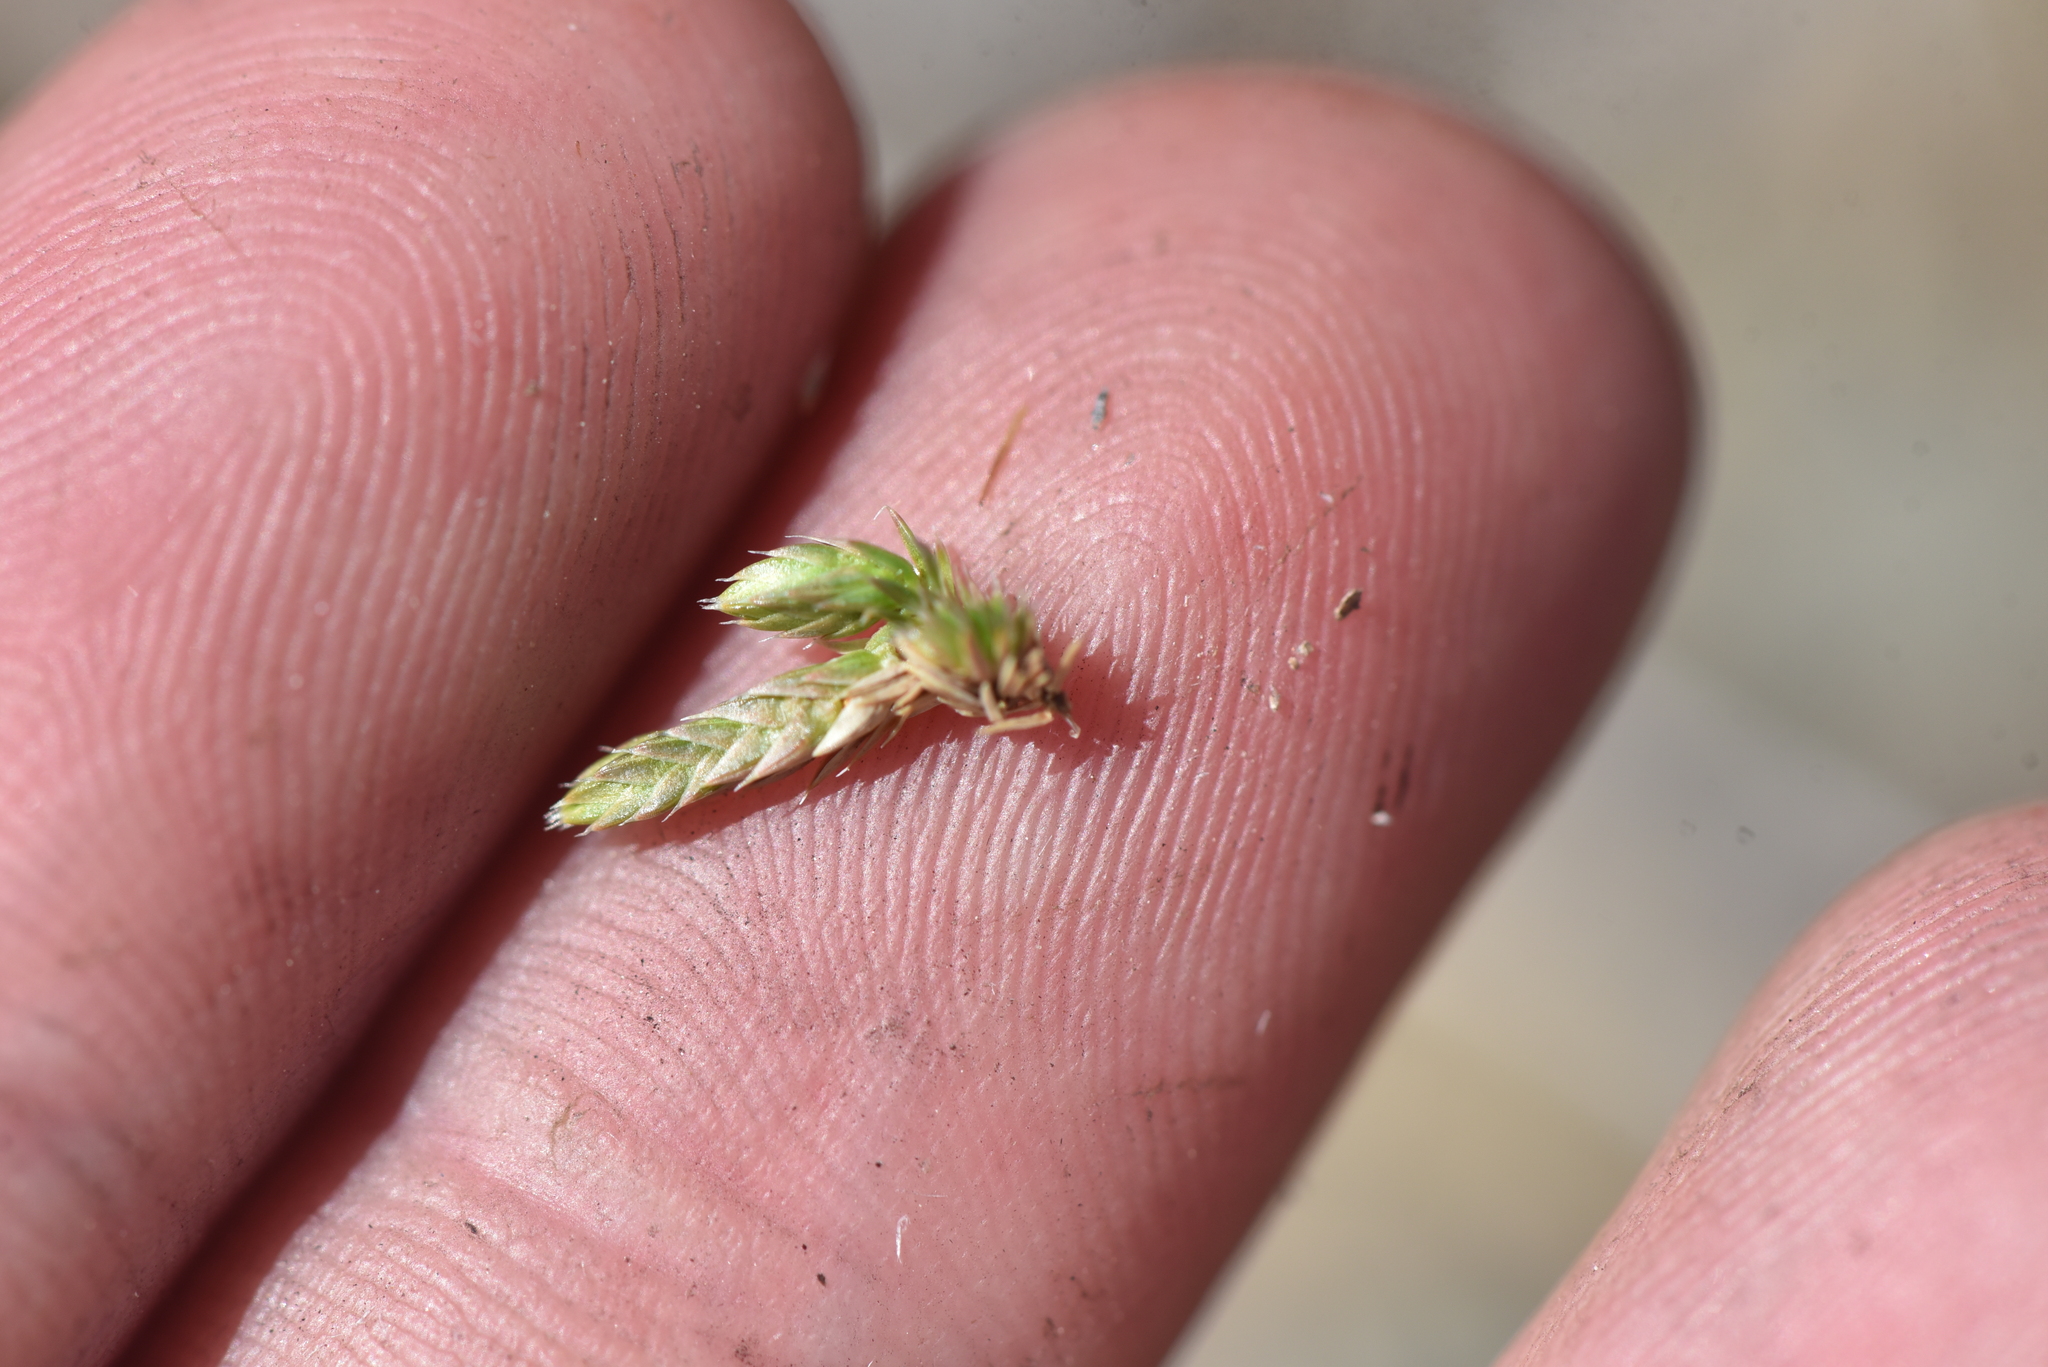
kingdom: Plantae
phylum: Tracheophyta
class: Lycopodiopsida
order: Selaginellales
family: Selaginellaceae
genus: Selaginella
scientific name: Selaginella densa
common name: Mountain spike-moss
